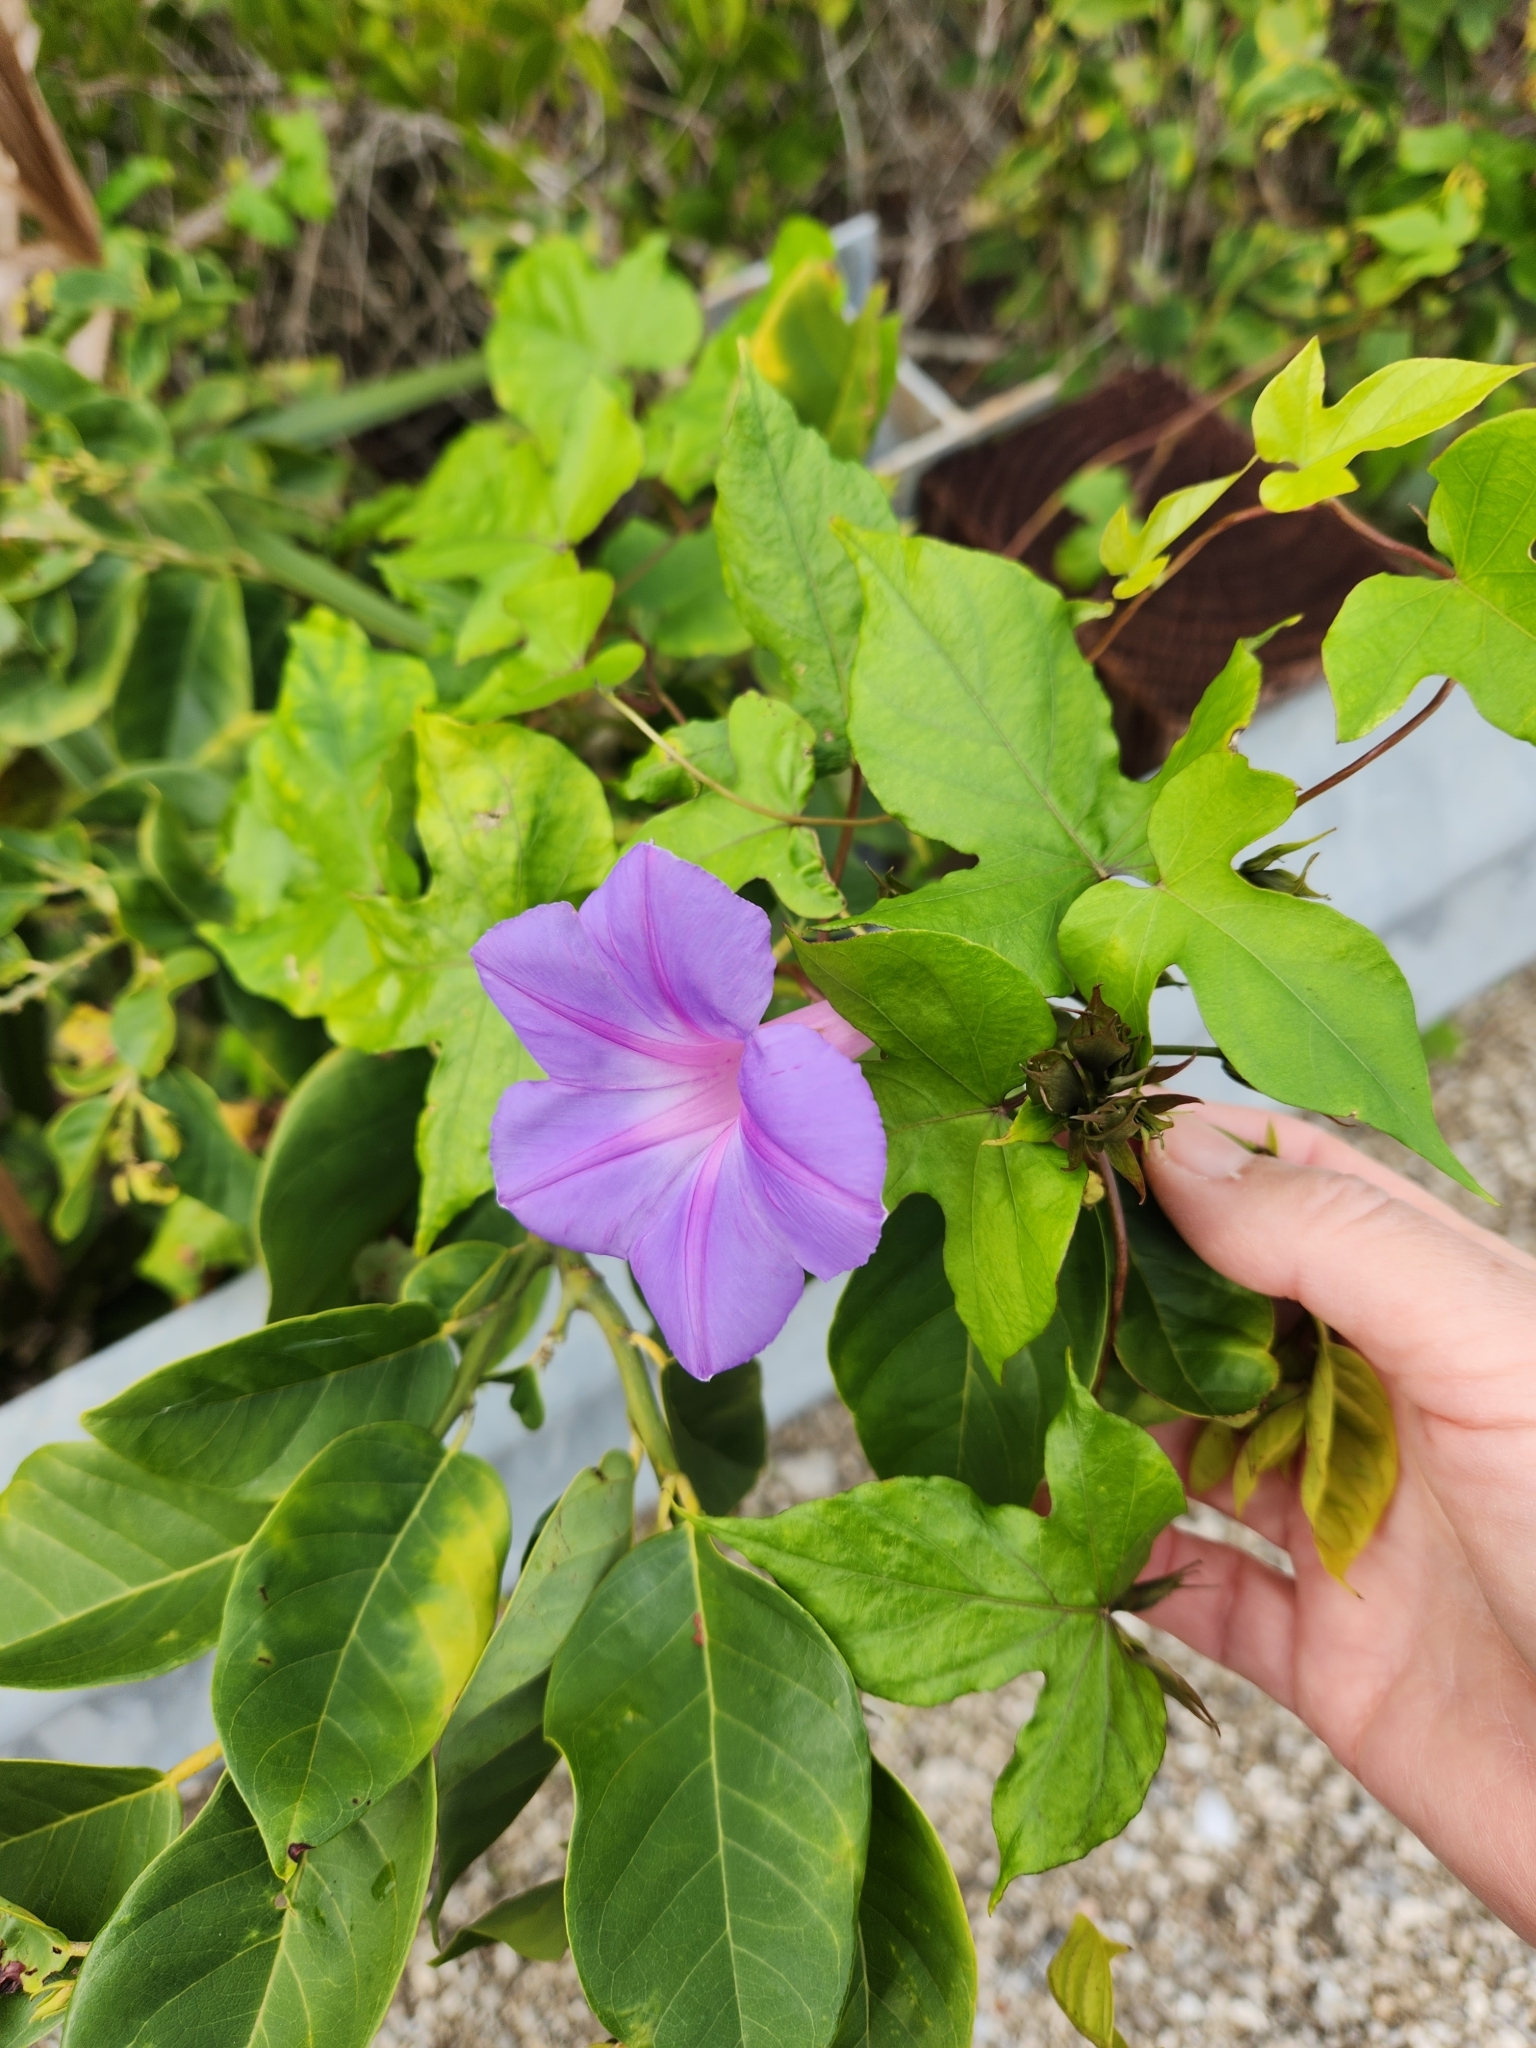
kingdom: Plantae
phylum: Tracheophyta
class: Magnoliopsida
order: Solanales
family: Convolvulaceae
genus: Ipomoea
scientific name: Ipomoea indica
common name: Blue dawnflower
